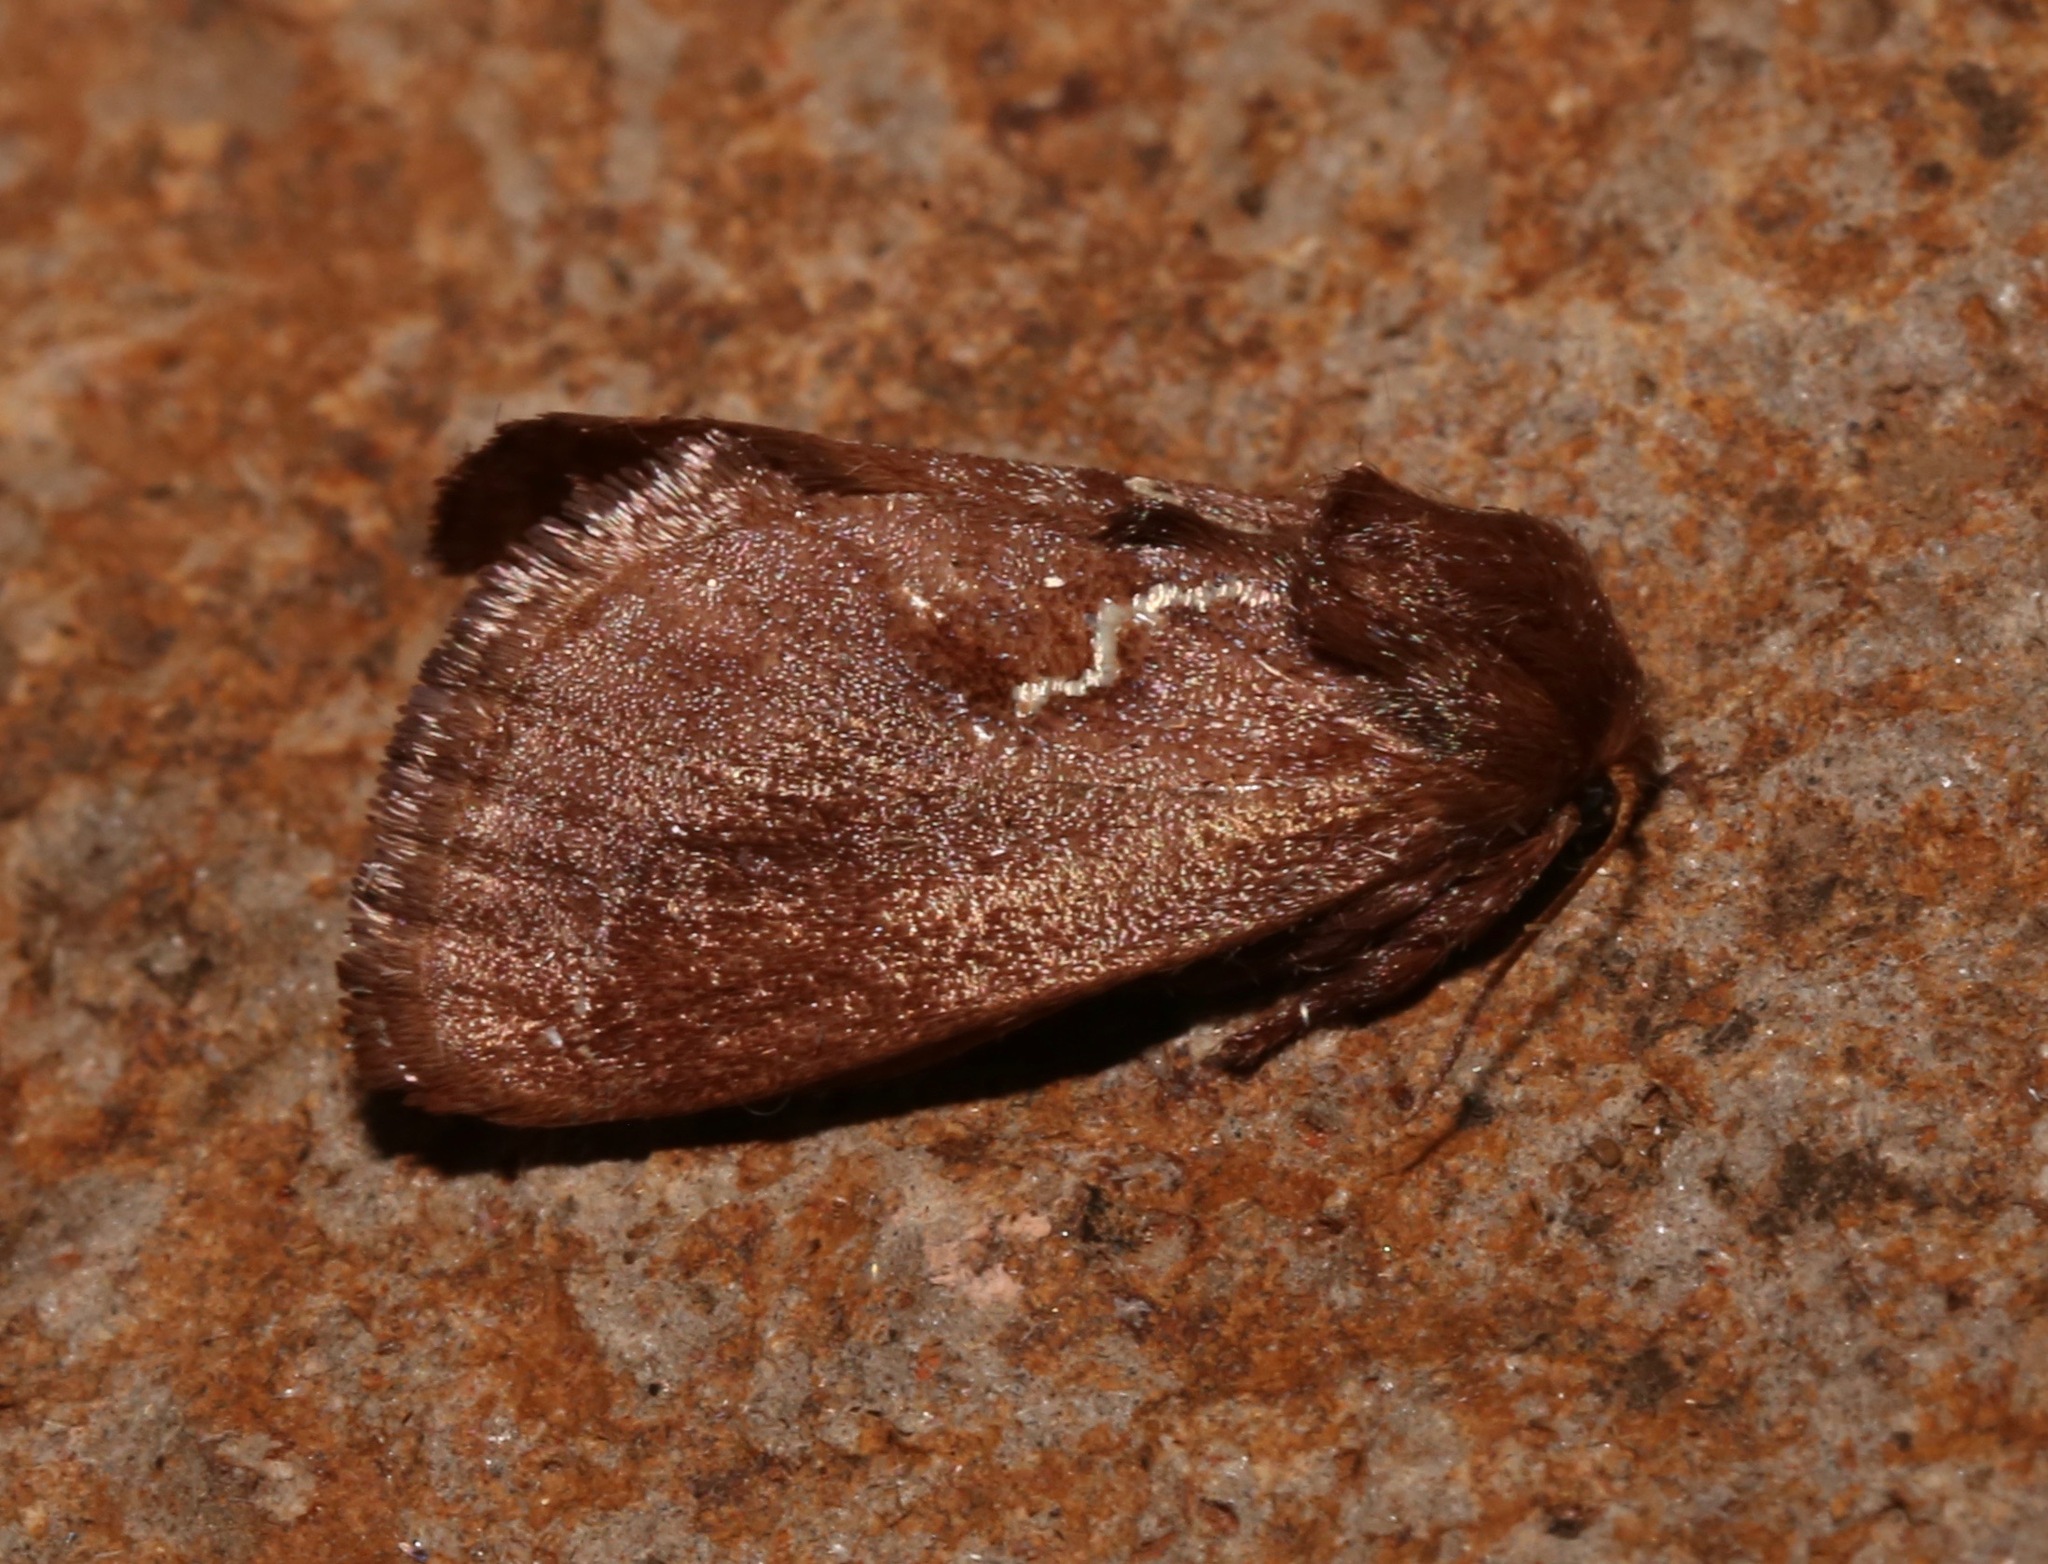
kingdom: Animalia
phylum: Arthropoda
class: Insecta
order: Lepidoptera
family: Limacodidae
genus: Euclea
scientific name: Euclea obliqua
